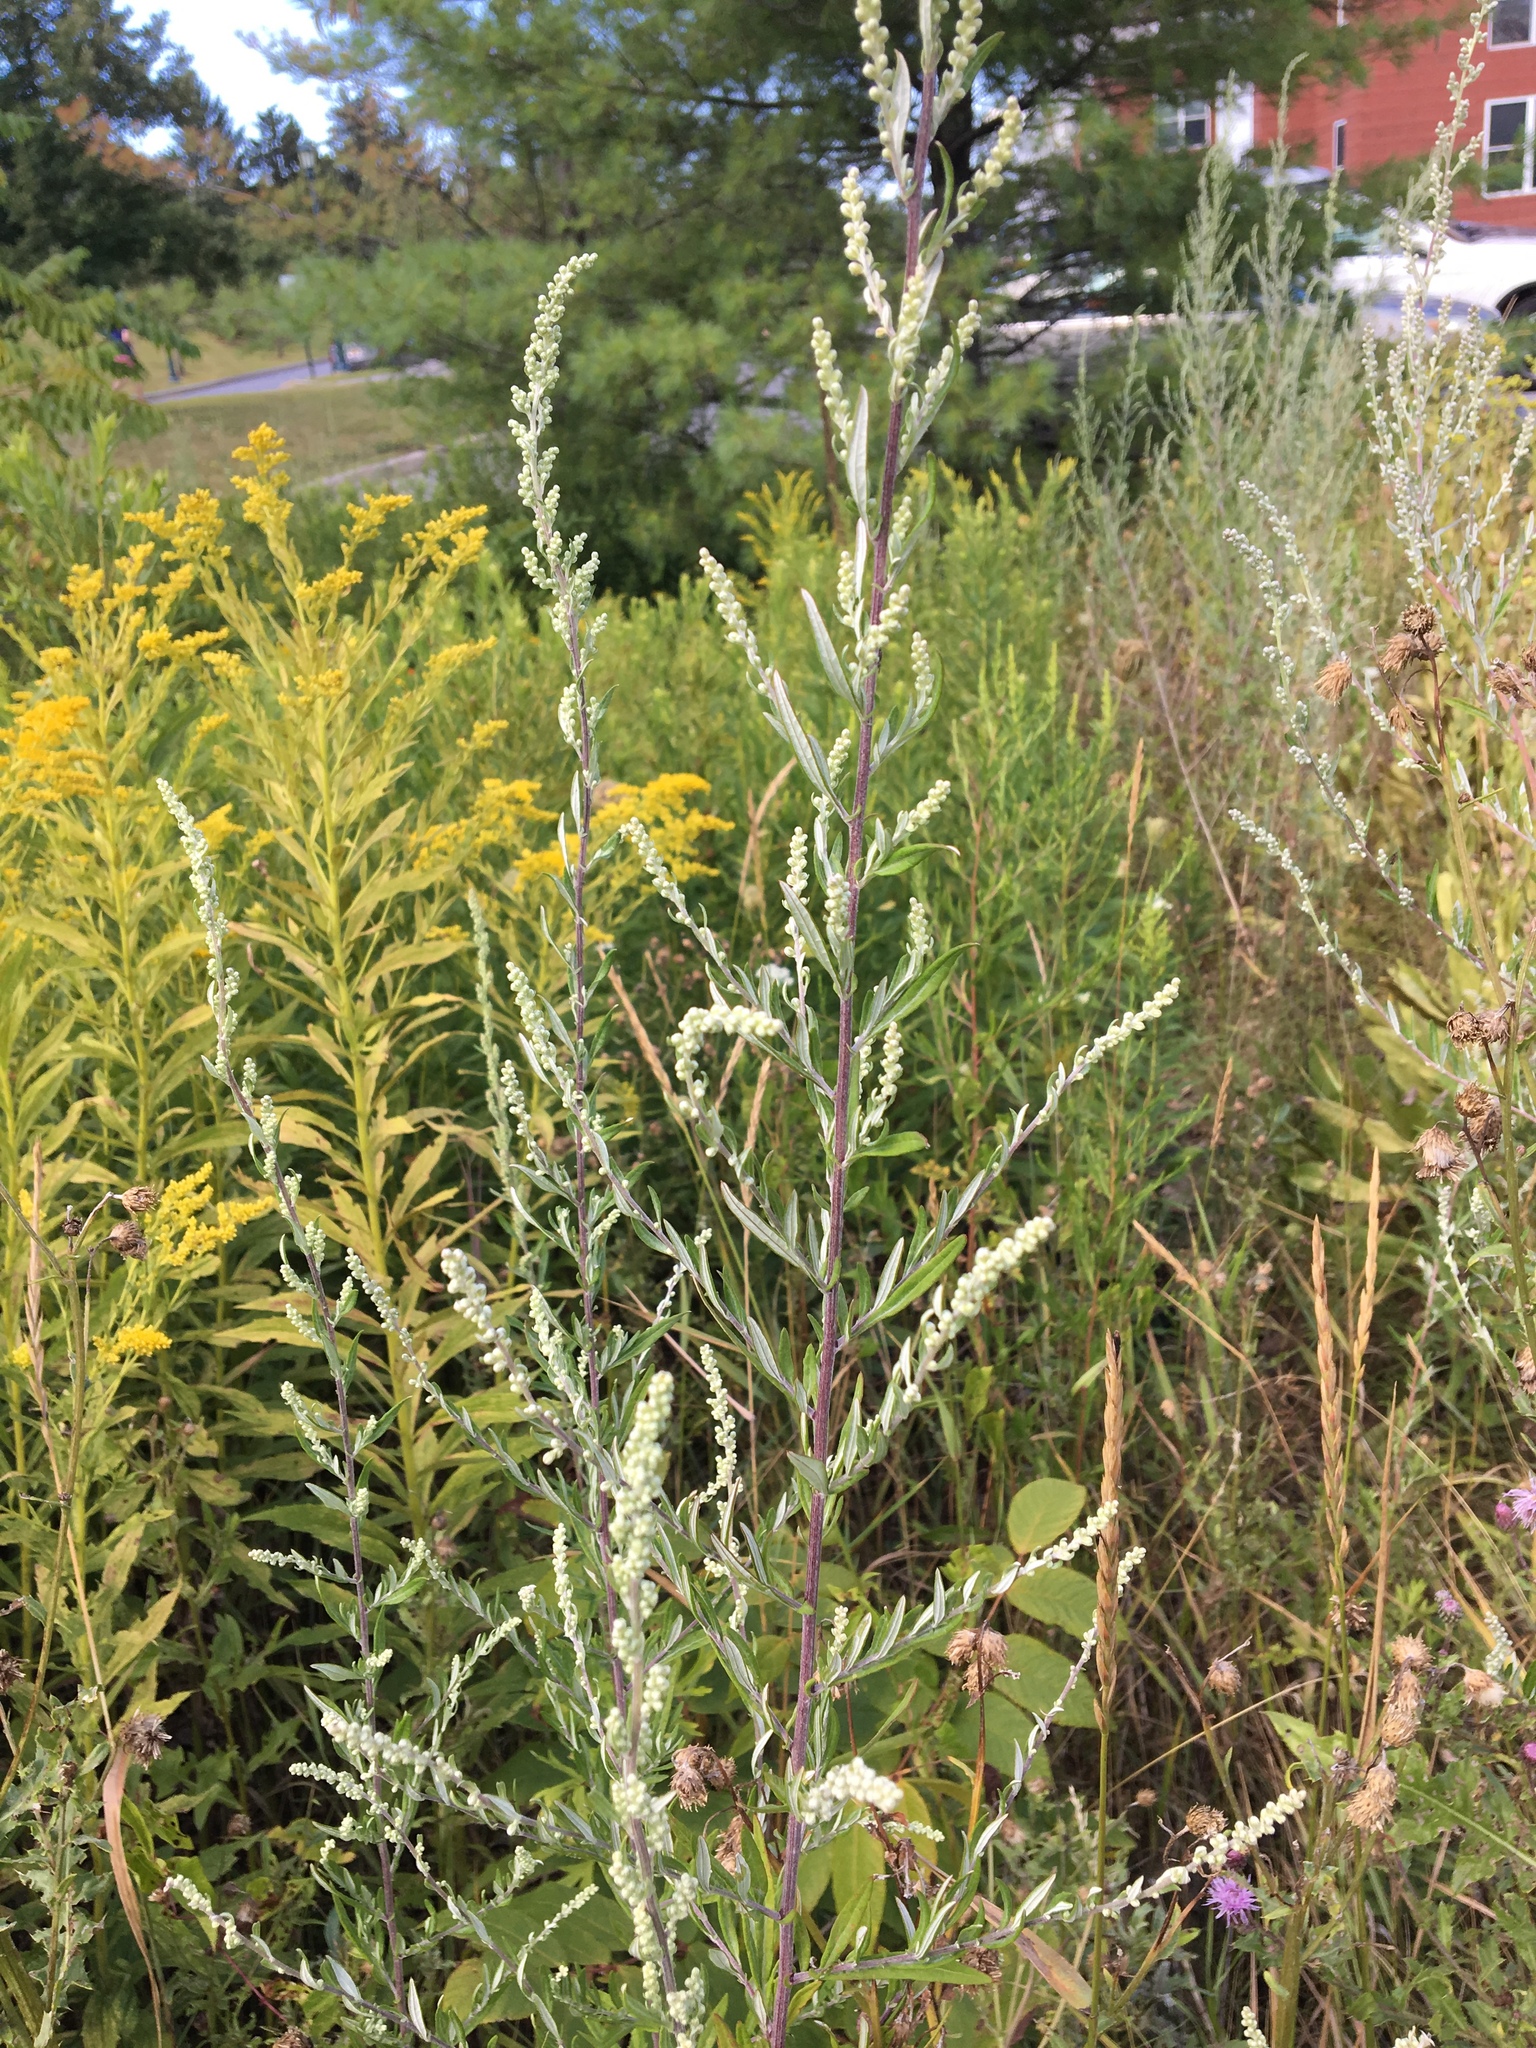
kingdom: Plantae
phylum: Tracheophyta
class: Magnoliopsida
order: Asterales
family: Asteraceae
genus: Artemisia
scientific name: Artemisia vulgaris
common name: Mugwort
